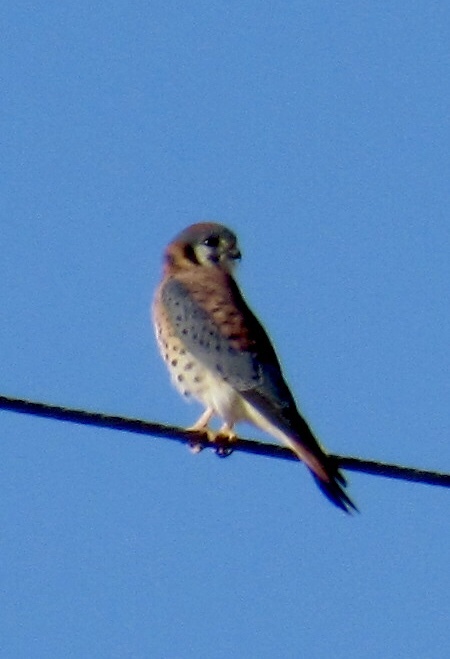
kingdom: Animalia
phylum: Chordata
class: Aves
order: Falconiformes
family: Falconidae
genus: Falco
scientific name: Falco sparverius
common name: American kestrel
